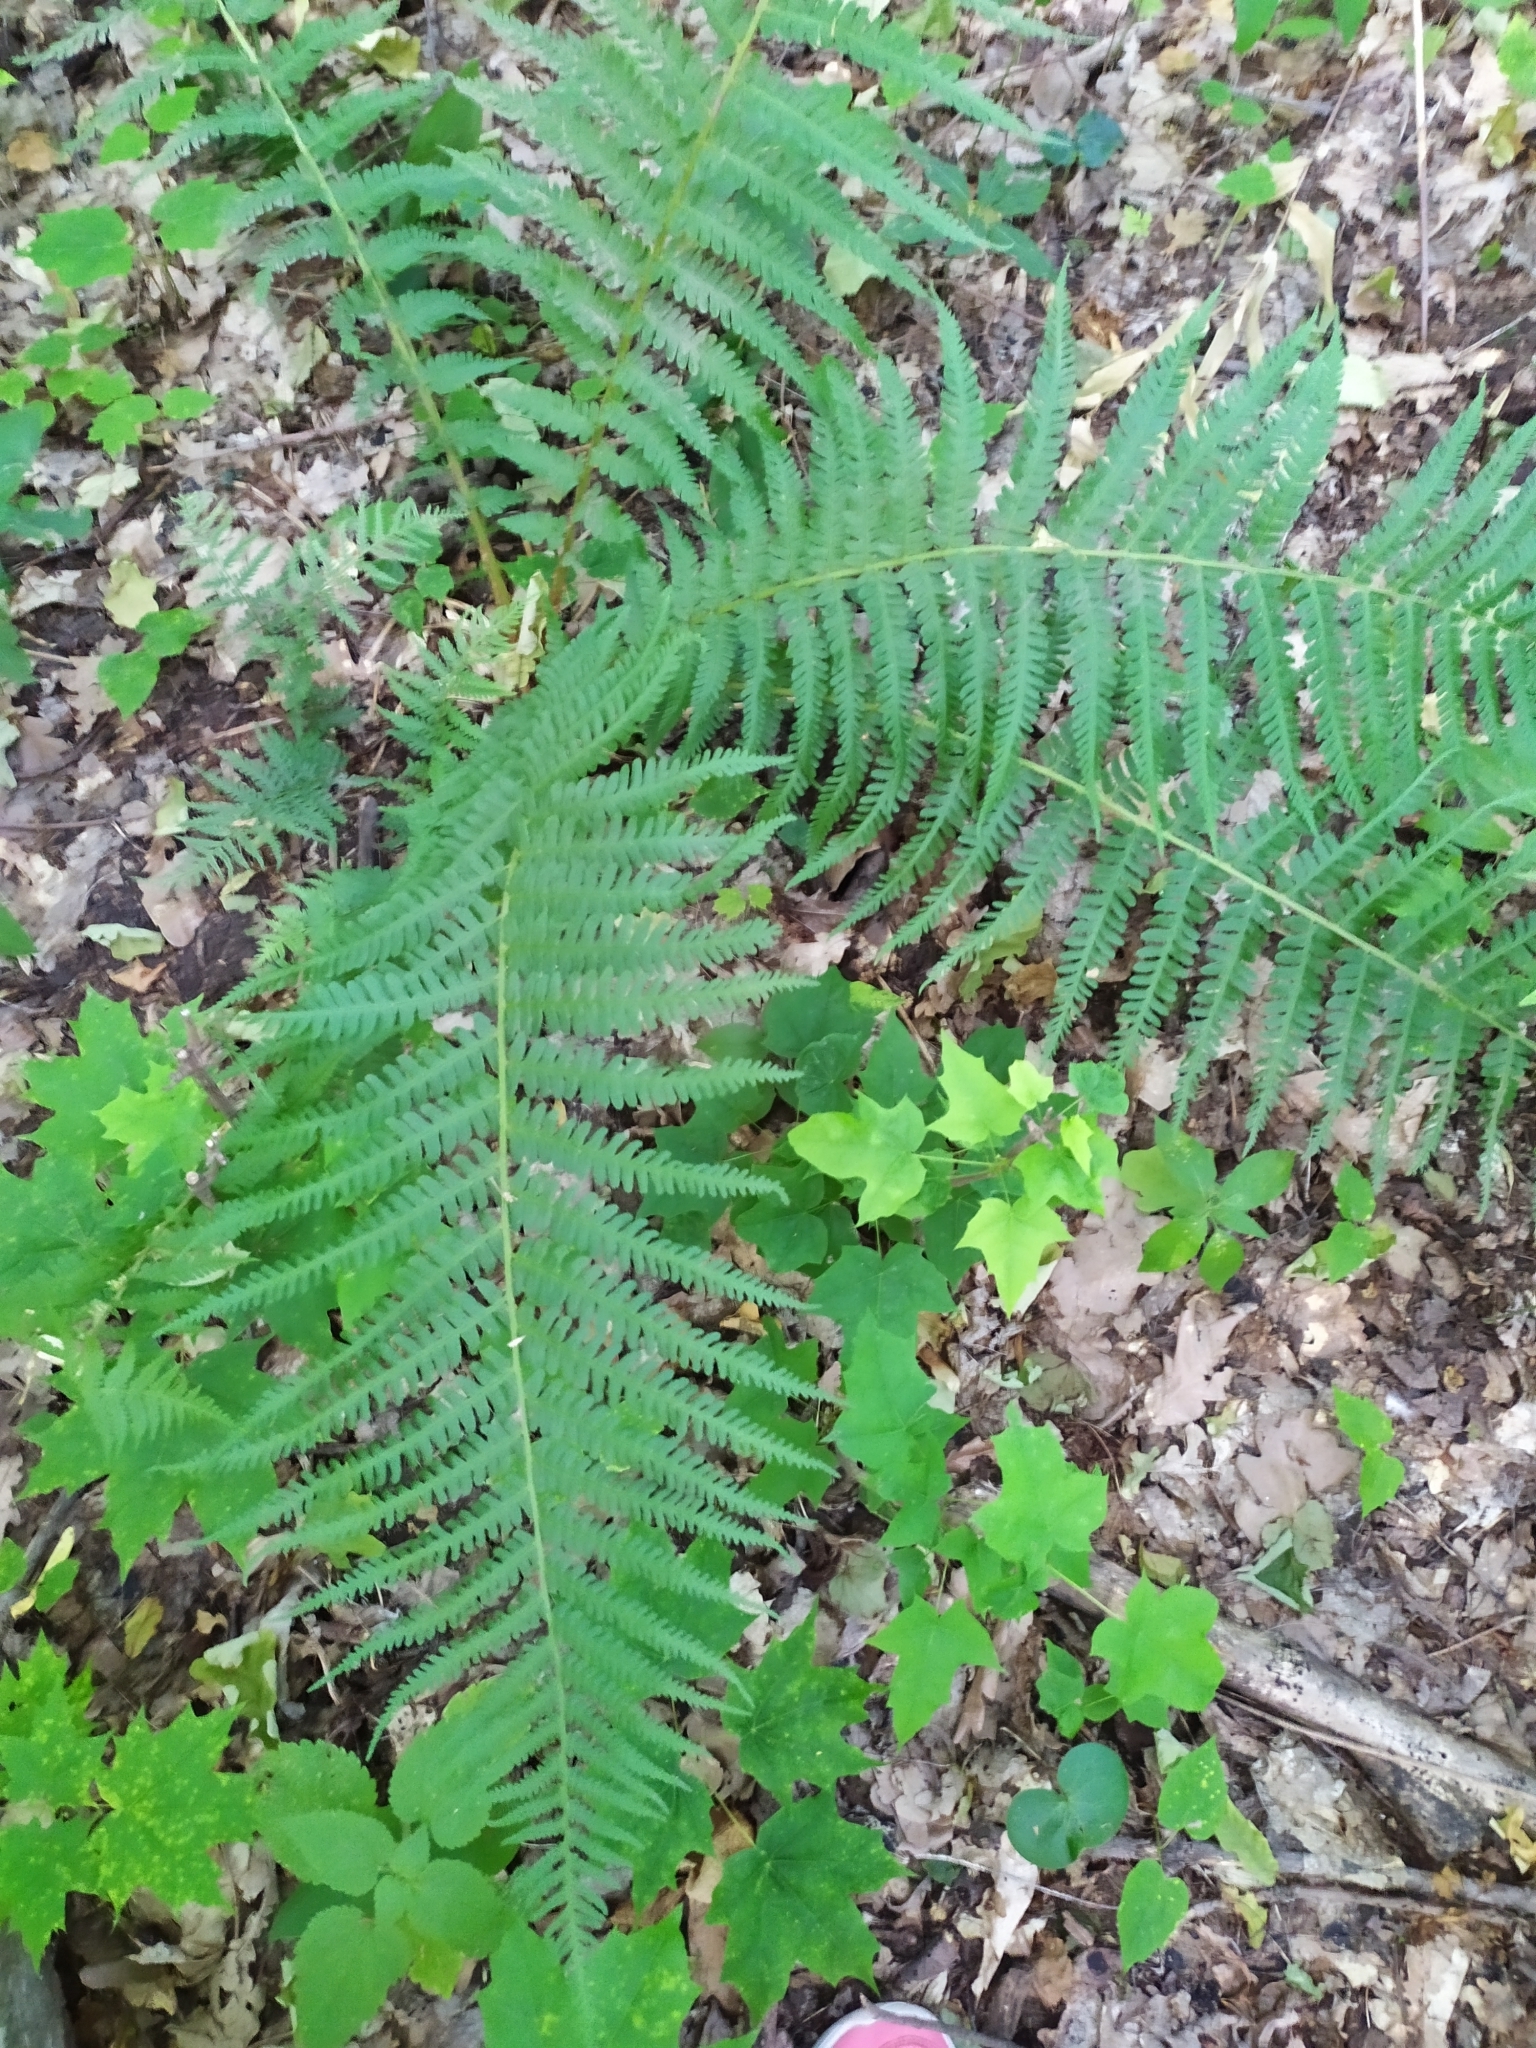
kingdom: Plantae
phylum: Tracheophyta
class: Polypodiopsida
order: Polypodiales
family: Dryopteridaceae
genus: Dryopteris
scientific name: Dryopteris filix-mas
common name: Male fern
